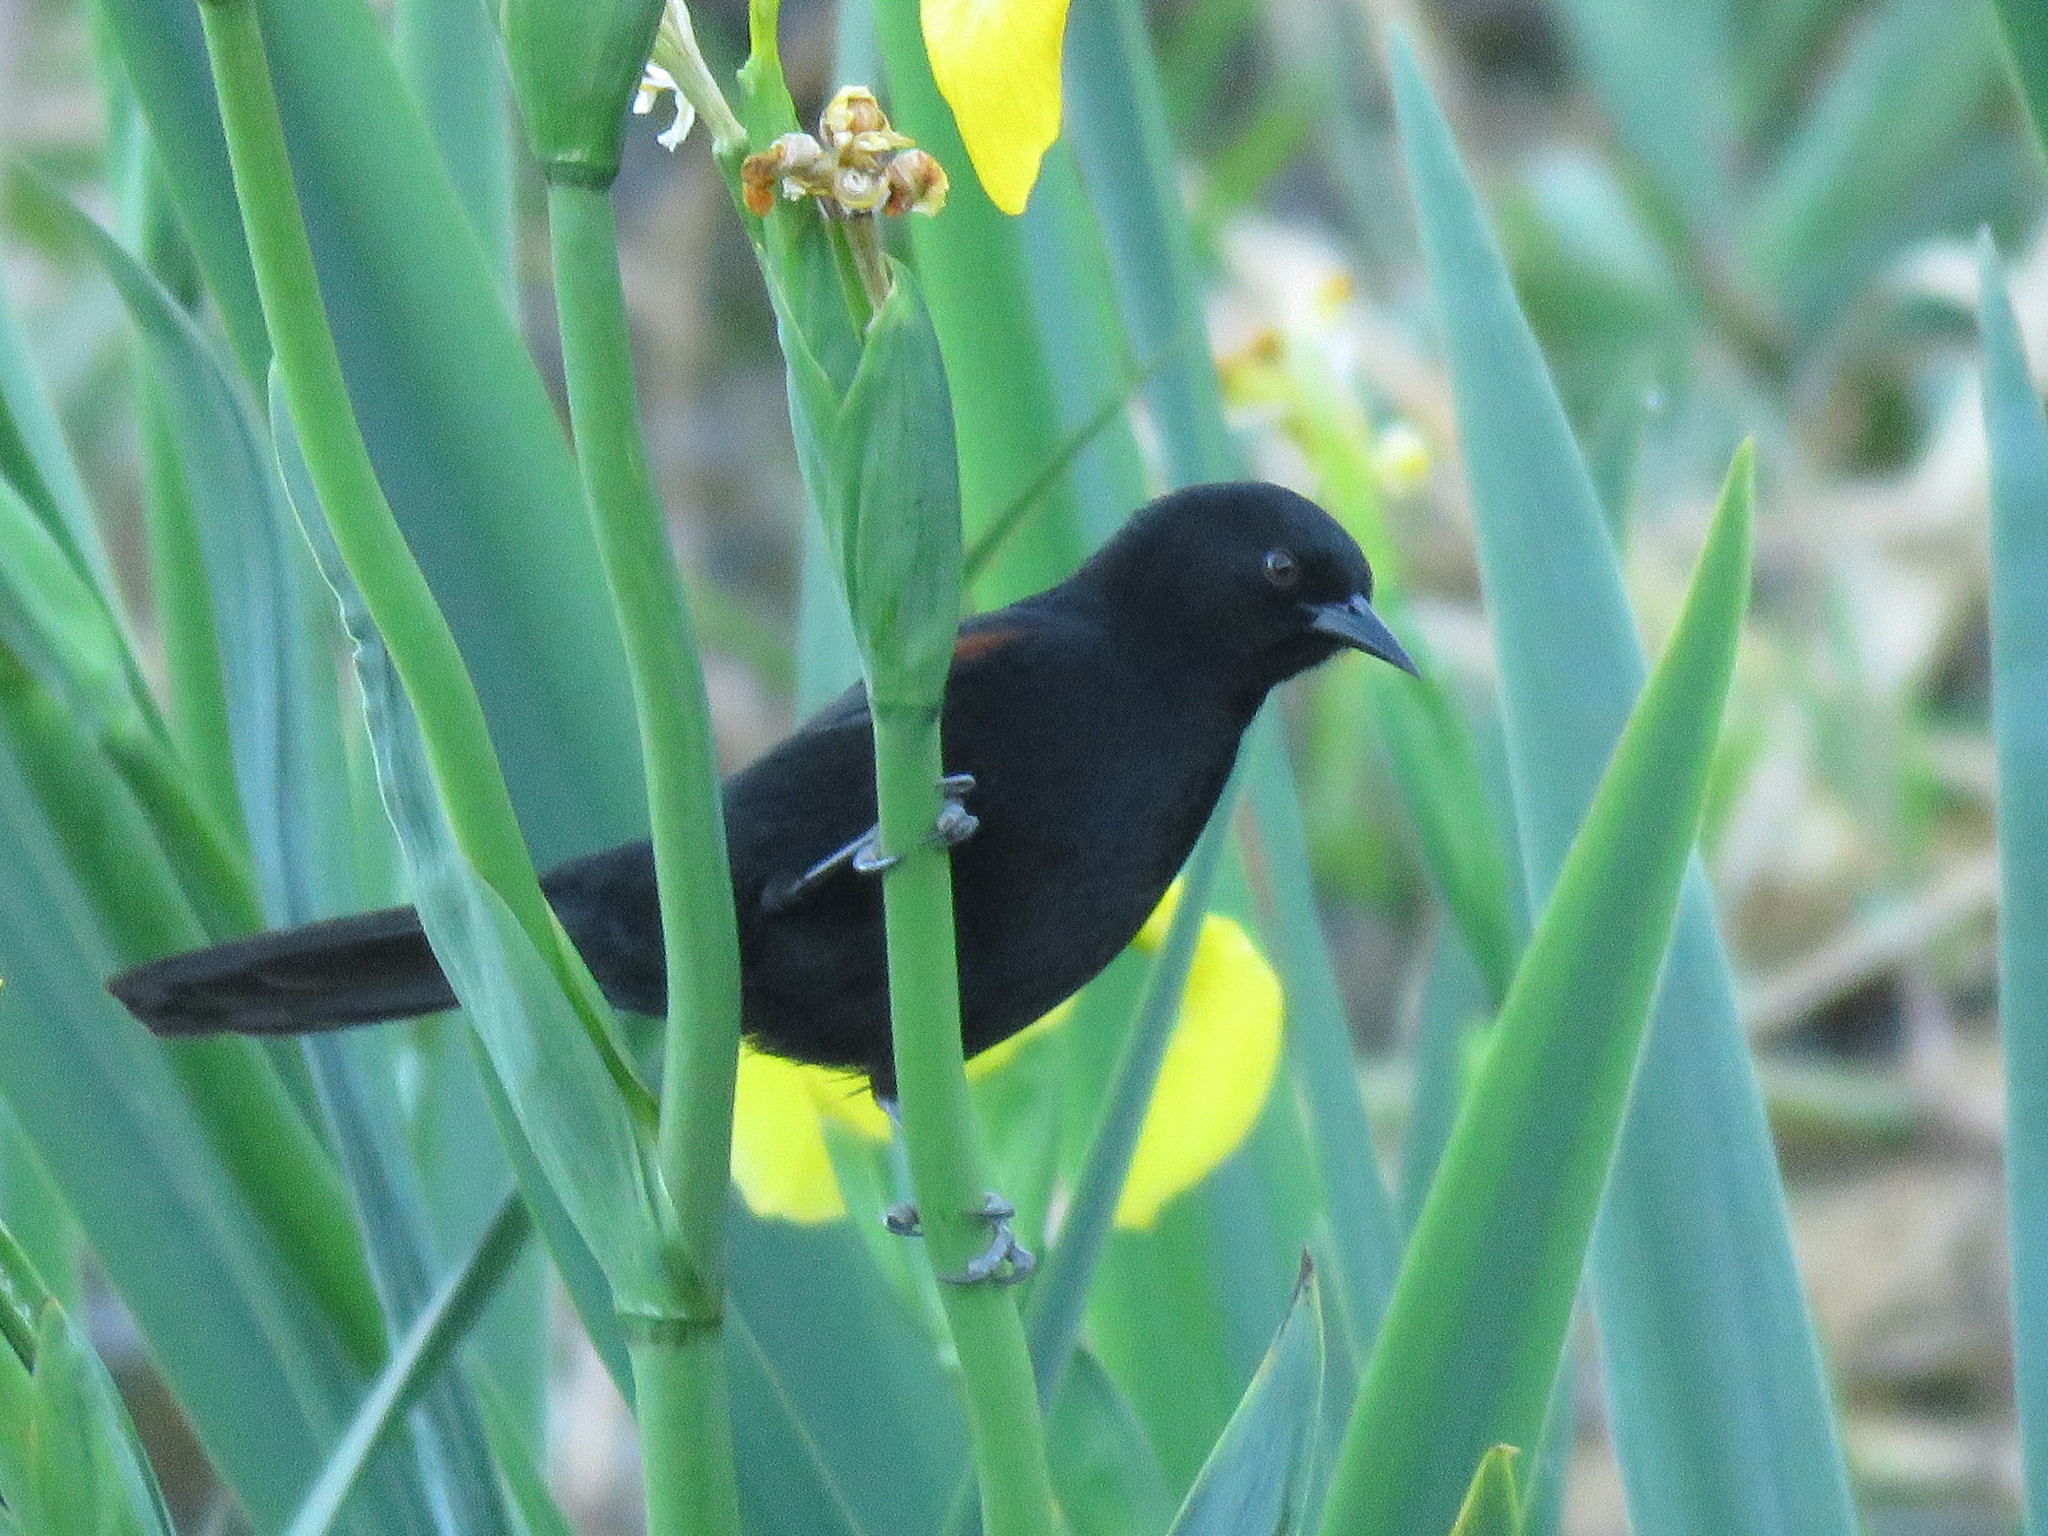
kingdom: Animalia
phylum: Chordata
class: Aves
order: Passeriformes
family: Icteridae
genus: Icterus
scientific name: Icterus cayanensis
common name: Epaulet oriole
